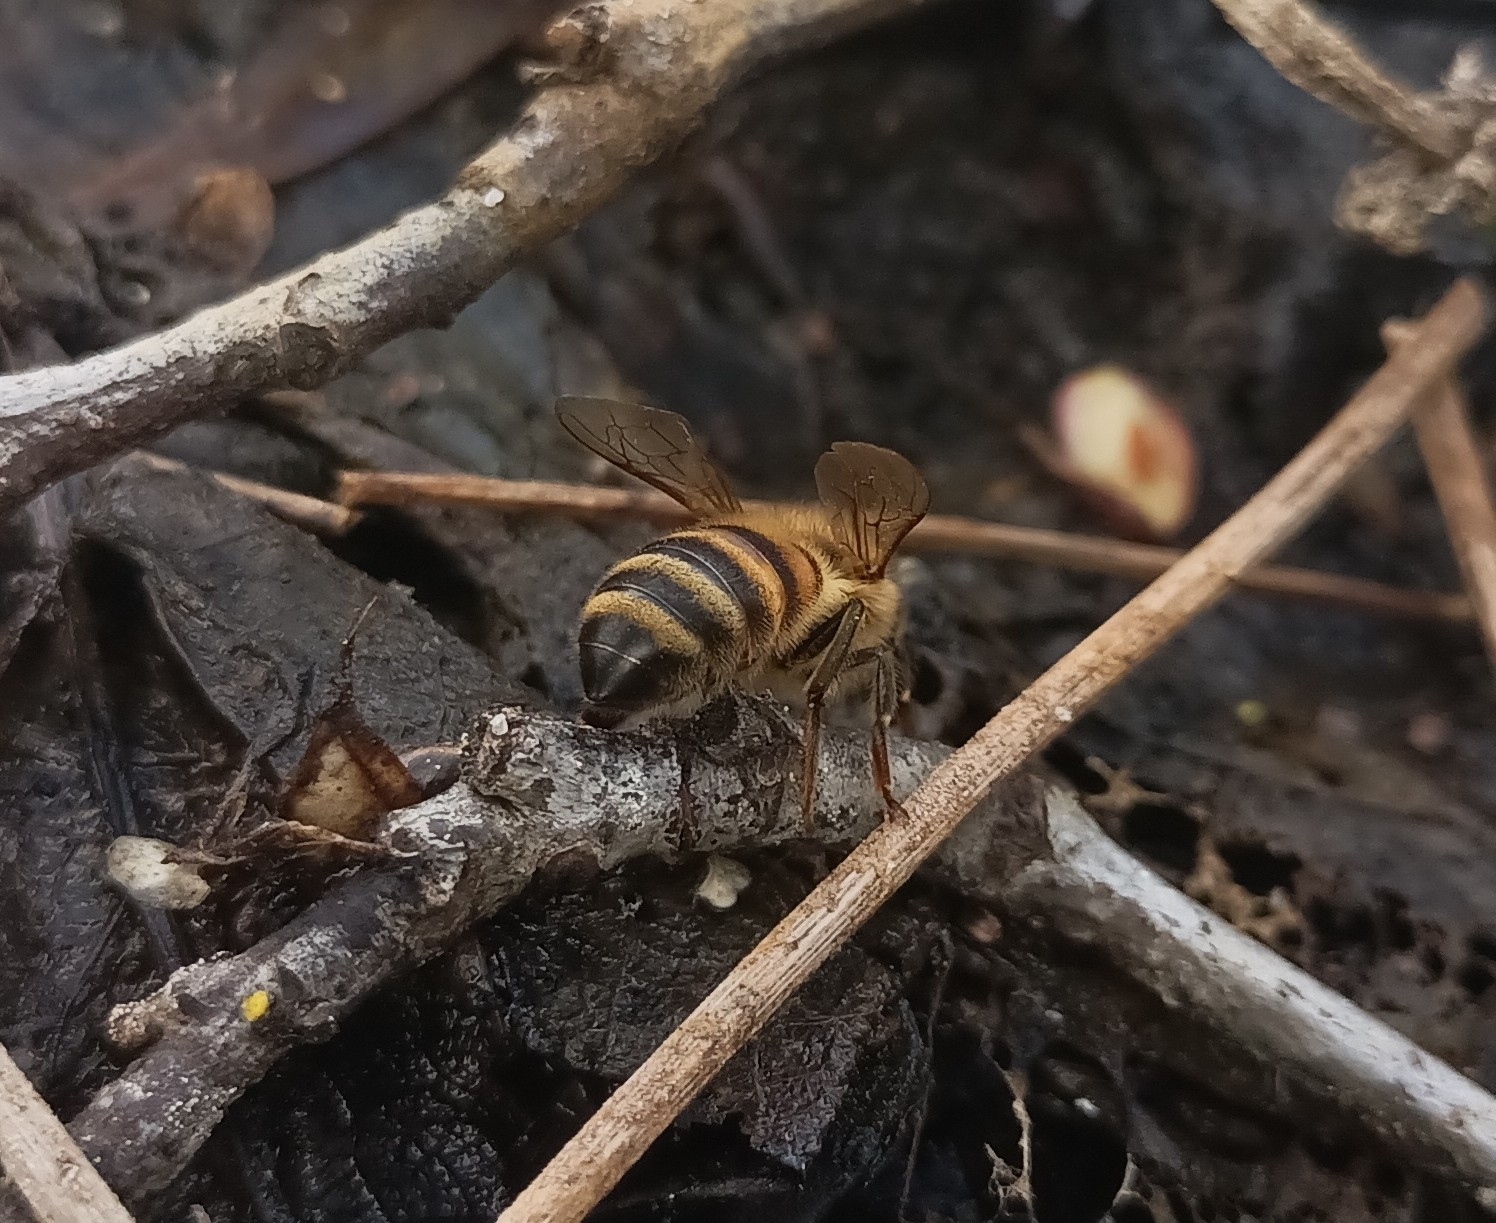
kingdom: Animalia
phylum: Arthropoda
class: Insecta
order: Hymenoptera
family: Apidae
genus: Apis
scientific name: Apis mellifera
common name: Honey bee
